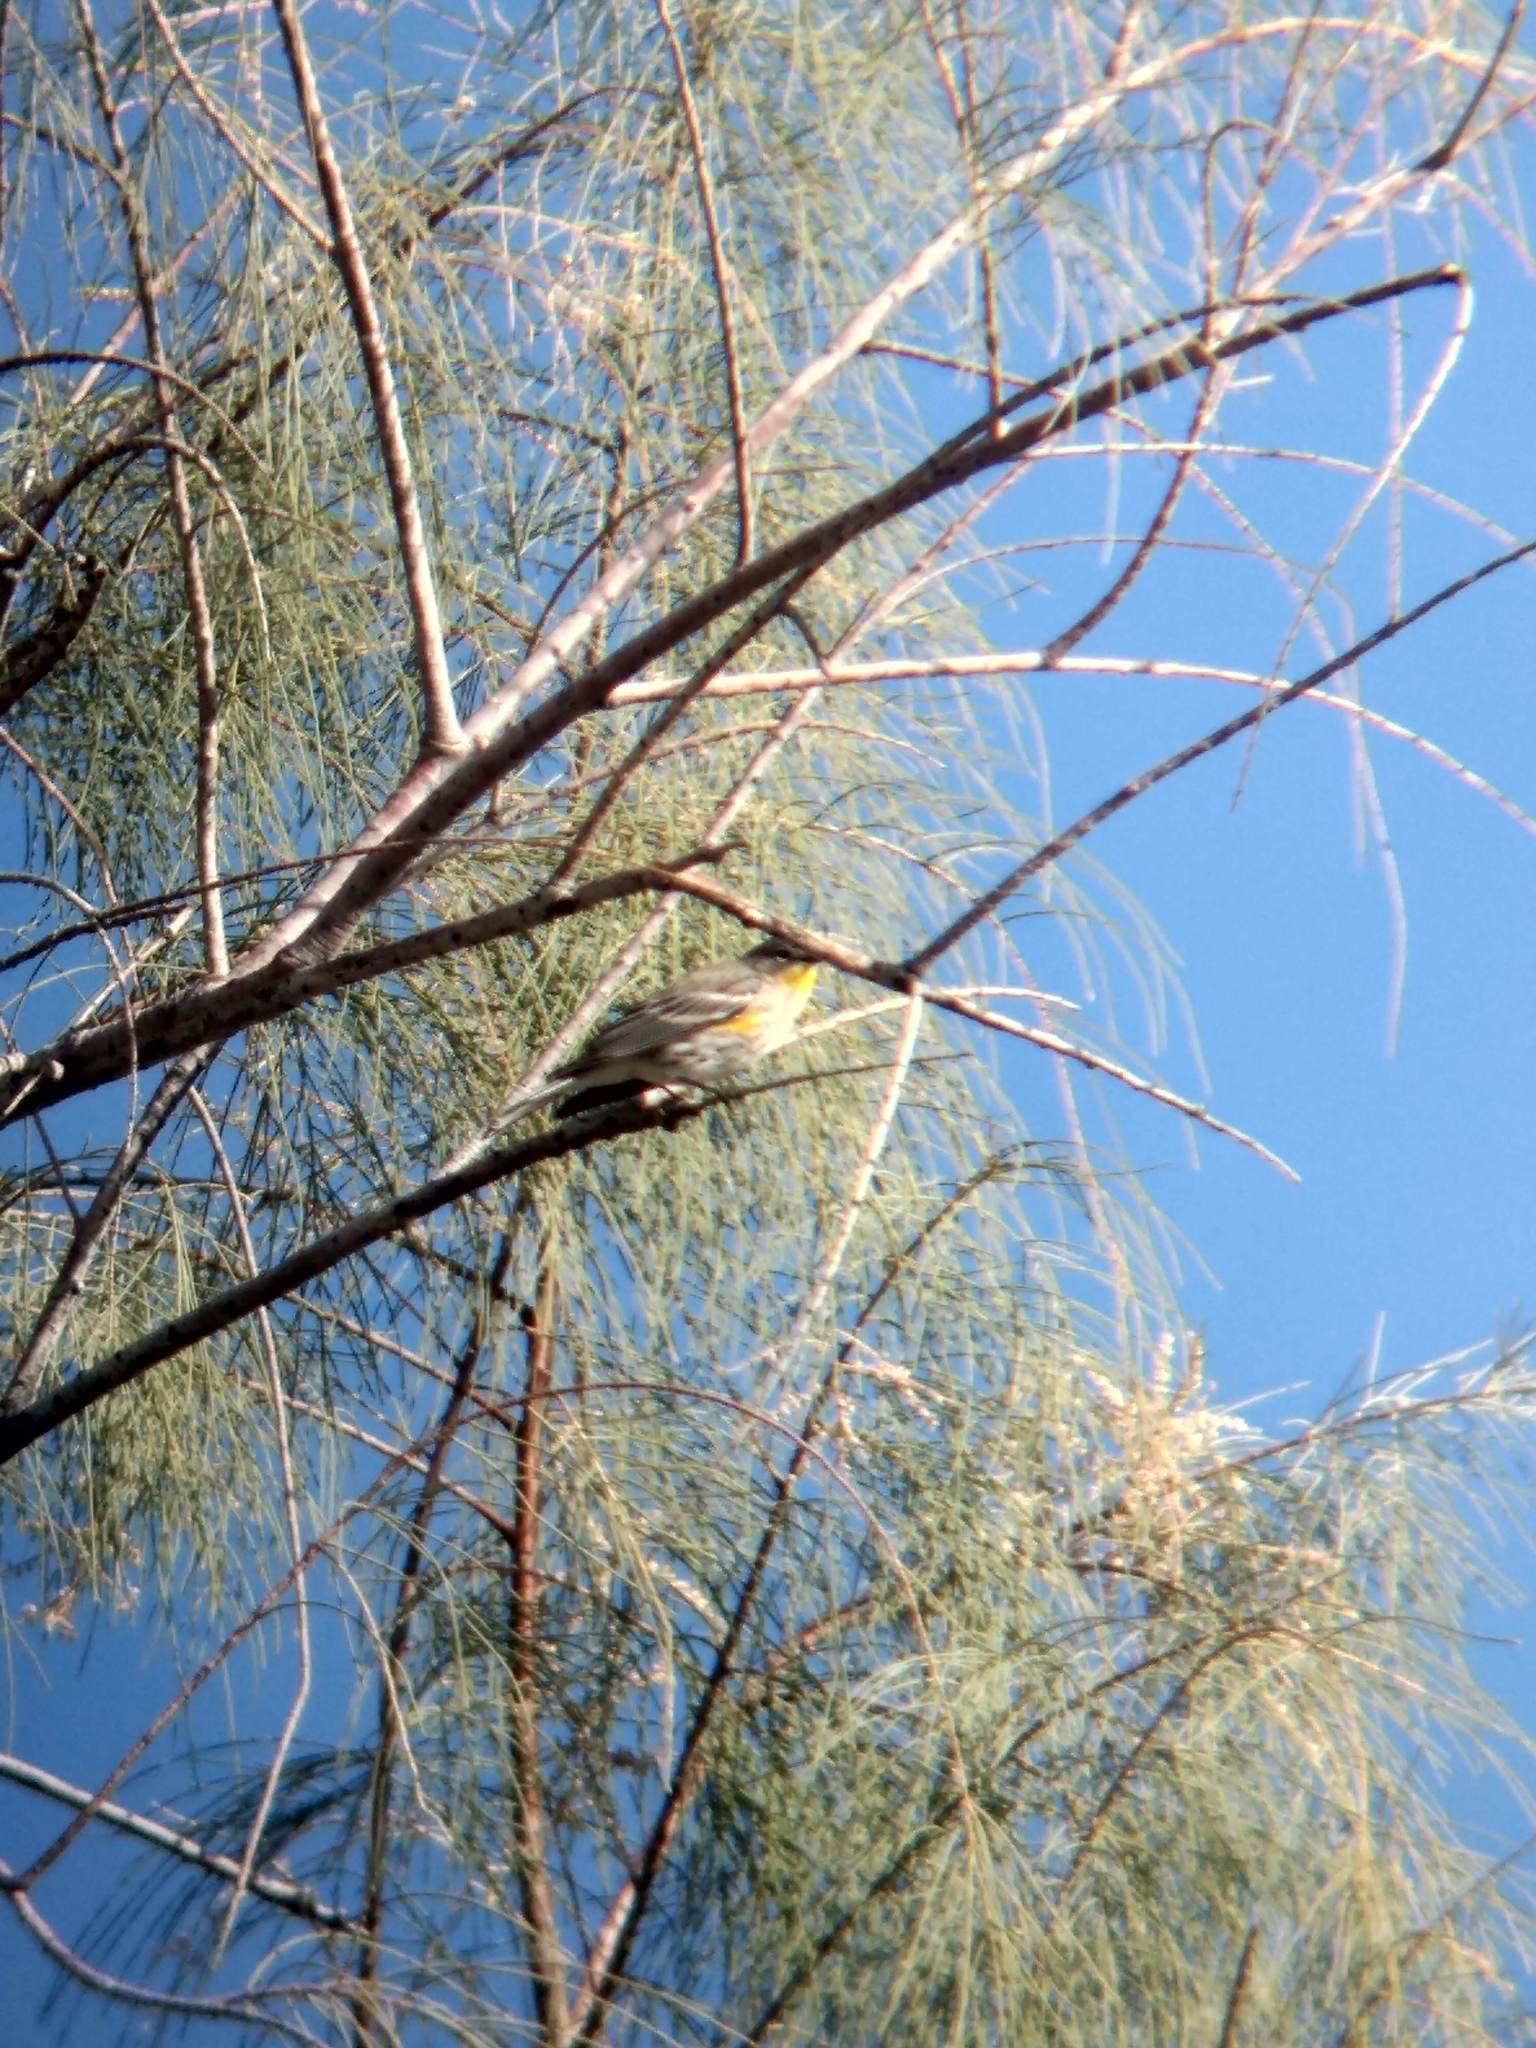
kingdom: Animalia
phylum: Chordata
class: Aves
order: Passeriformes
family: Parulidae
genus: Setophaga
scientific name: Setophaga coronata
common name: Myrtle warbler
